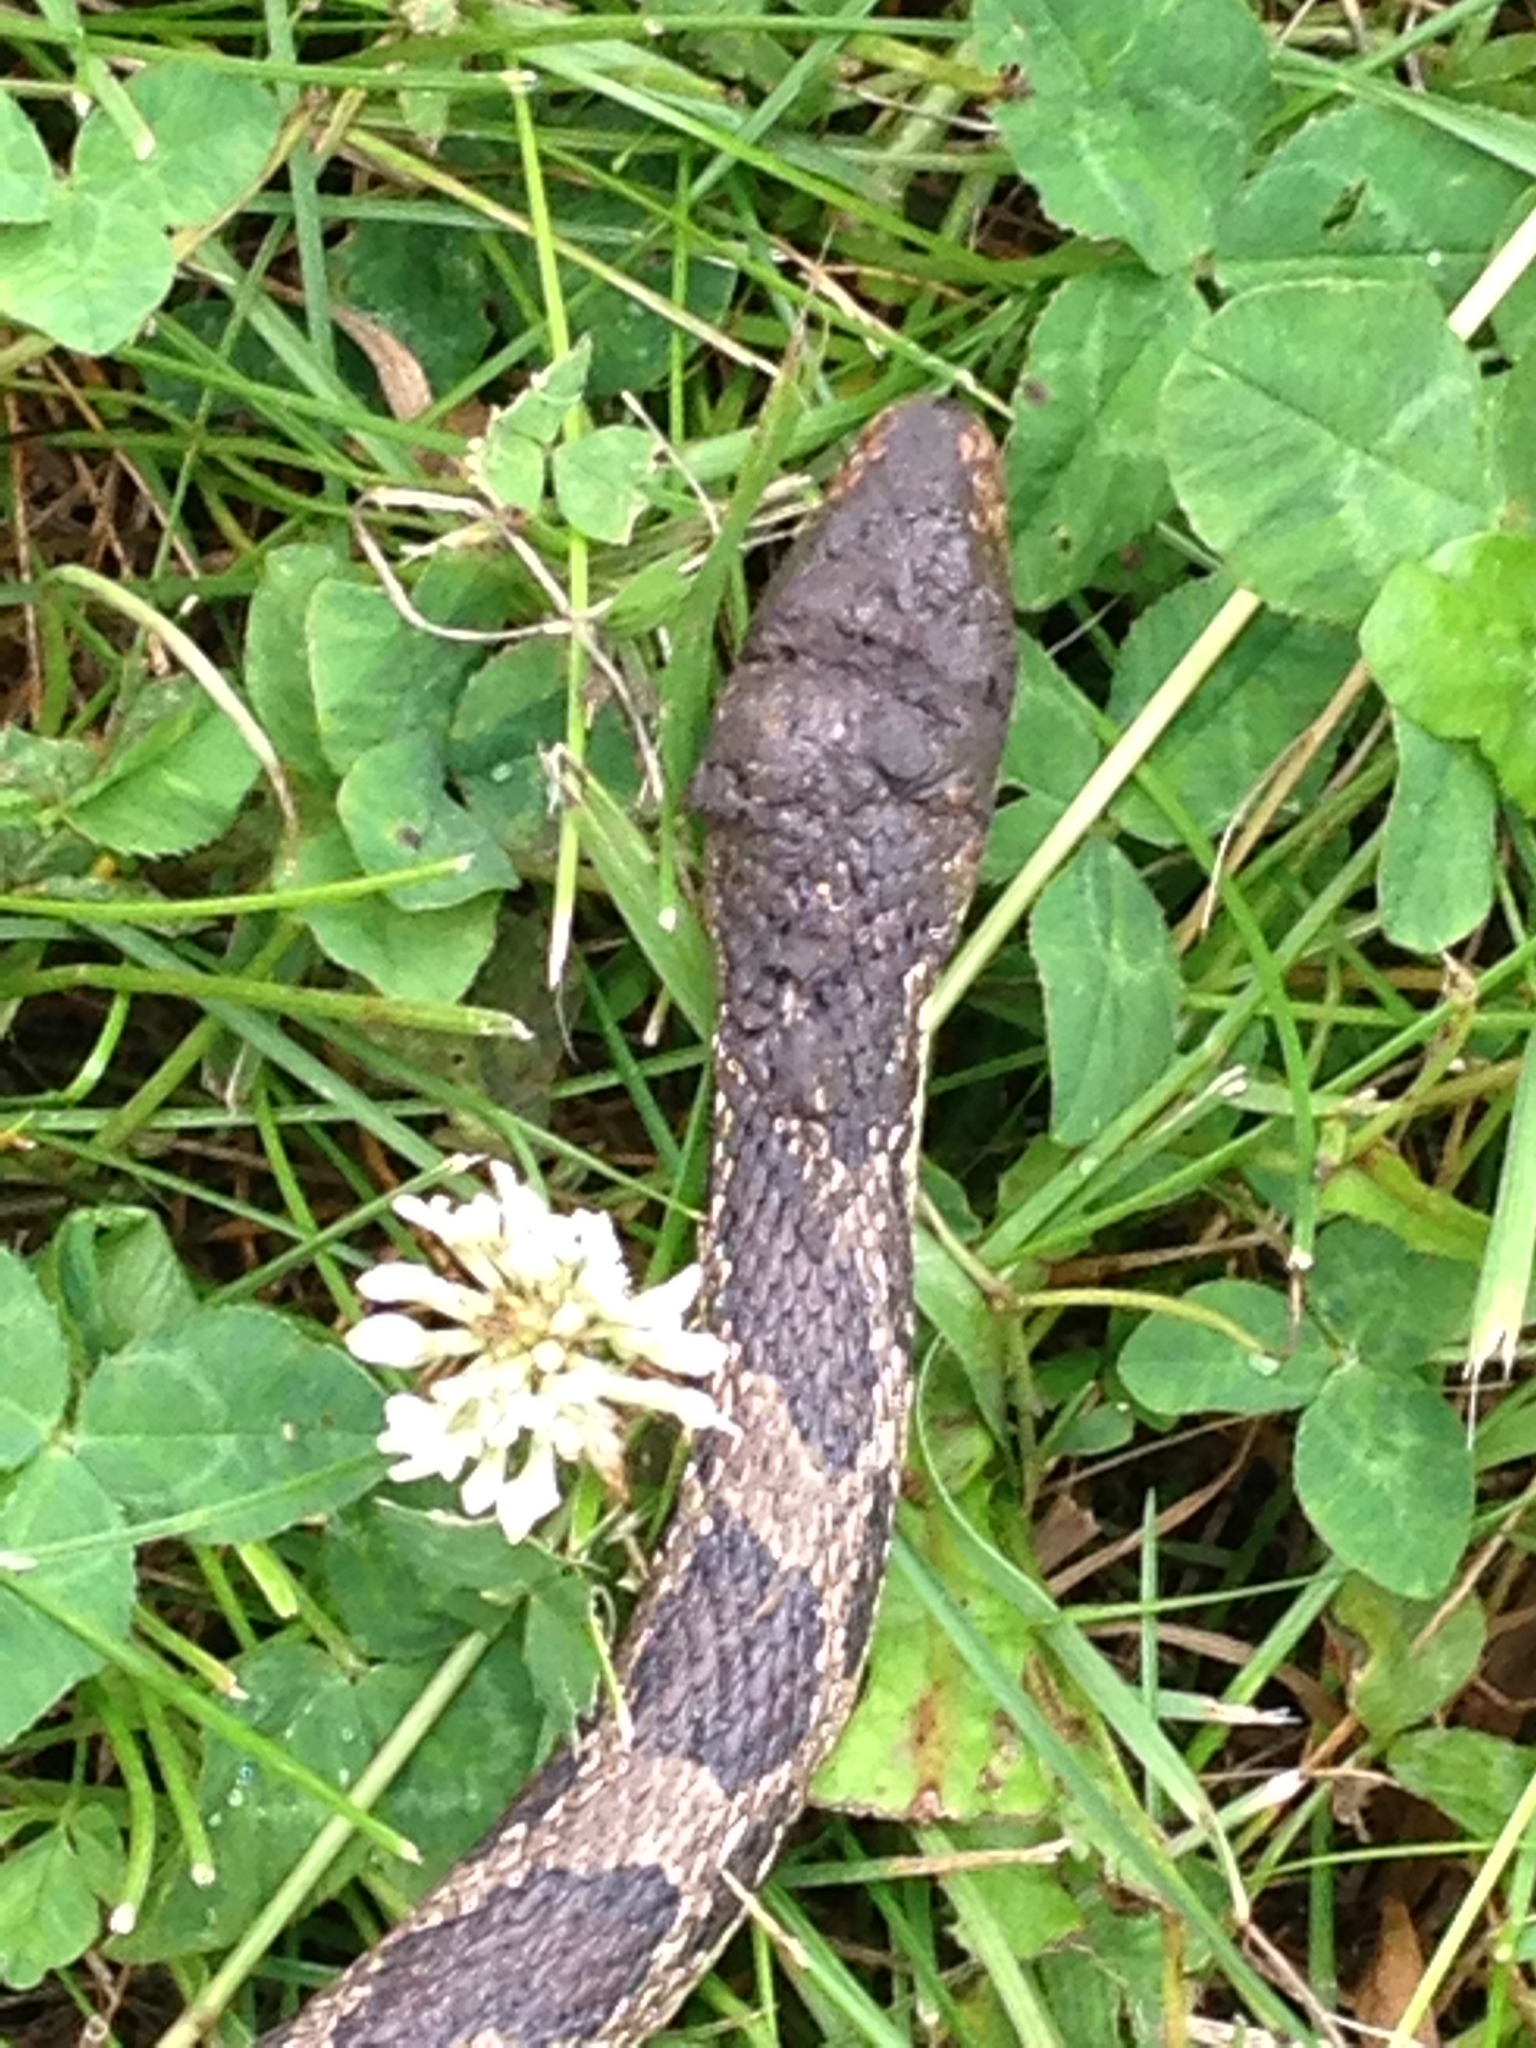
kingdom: Animalia
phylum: Chordata
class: Squamata
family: Colubridae
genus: Pantherophis
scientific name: Pantherophis ramspotti
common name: Western foxsnake
